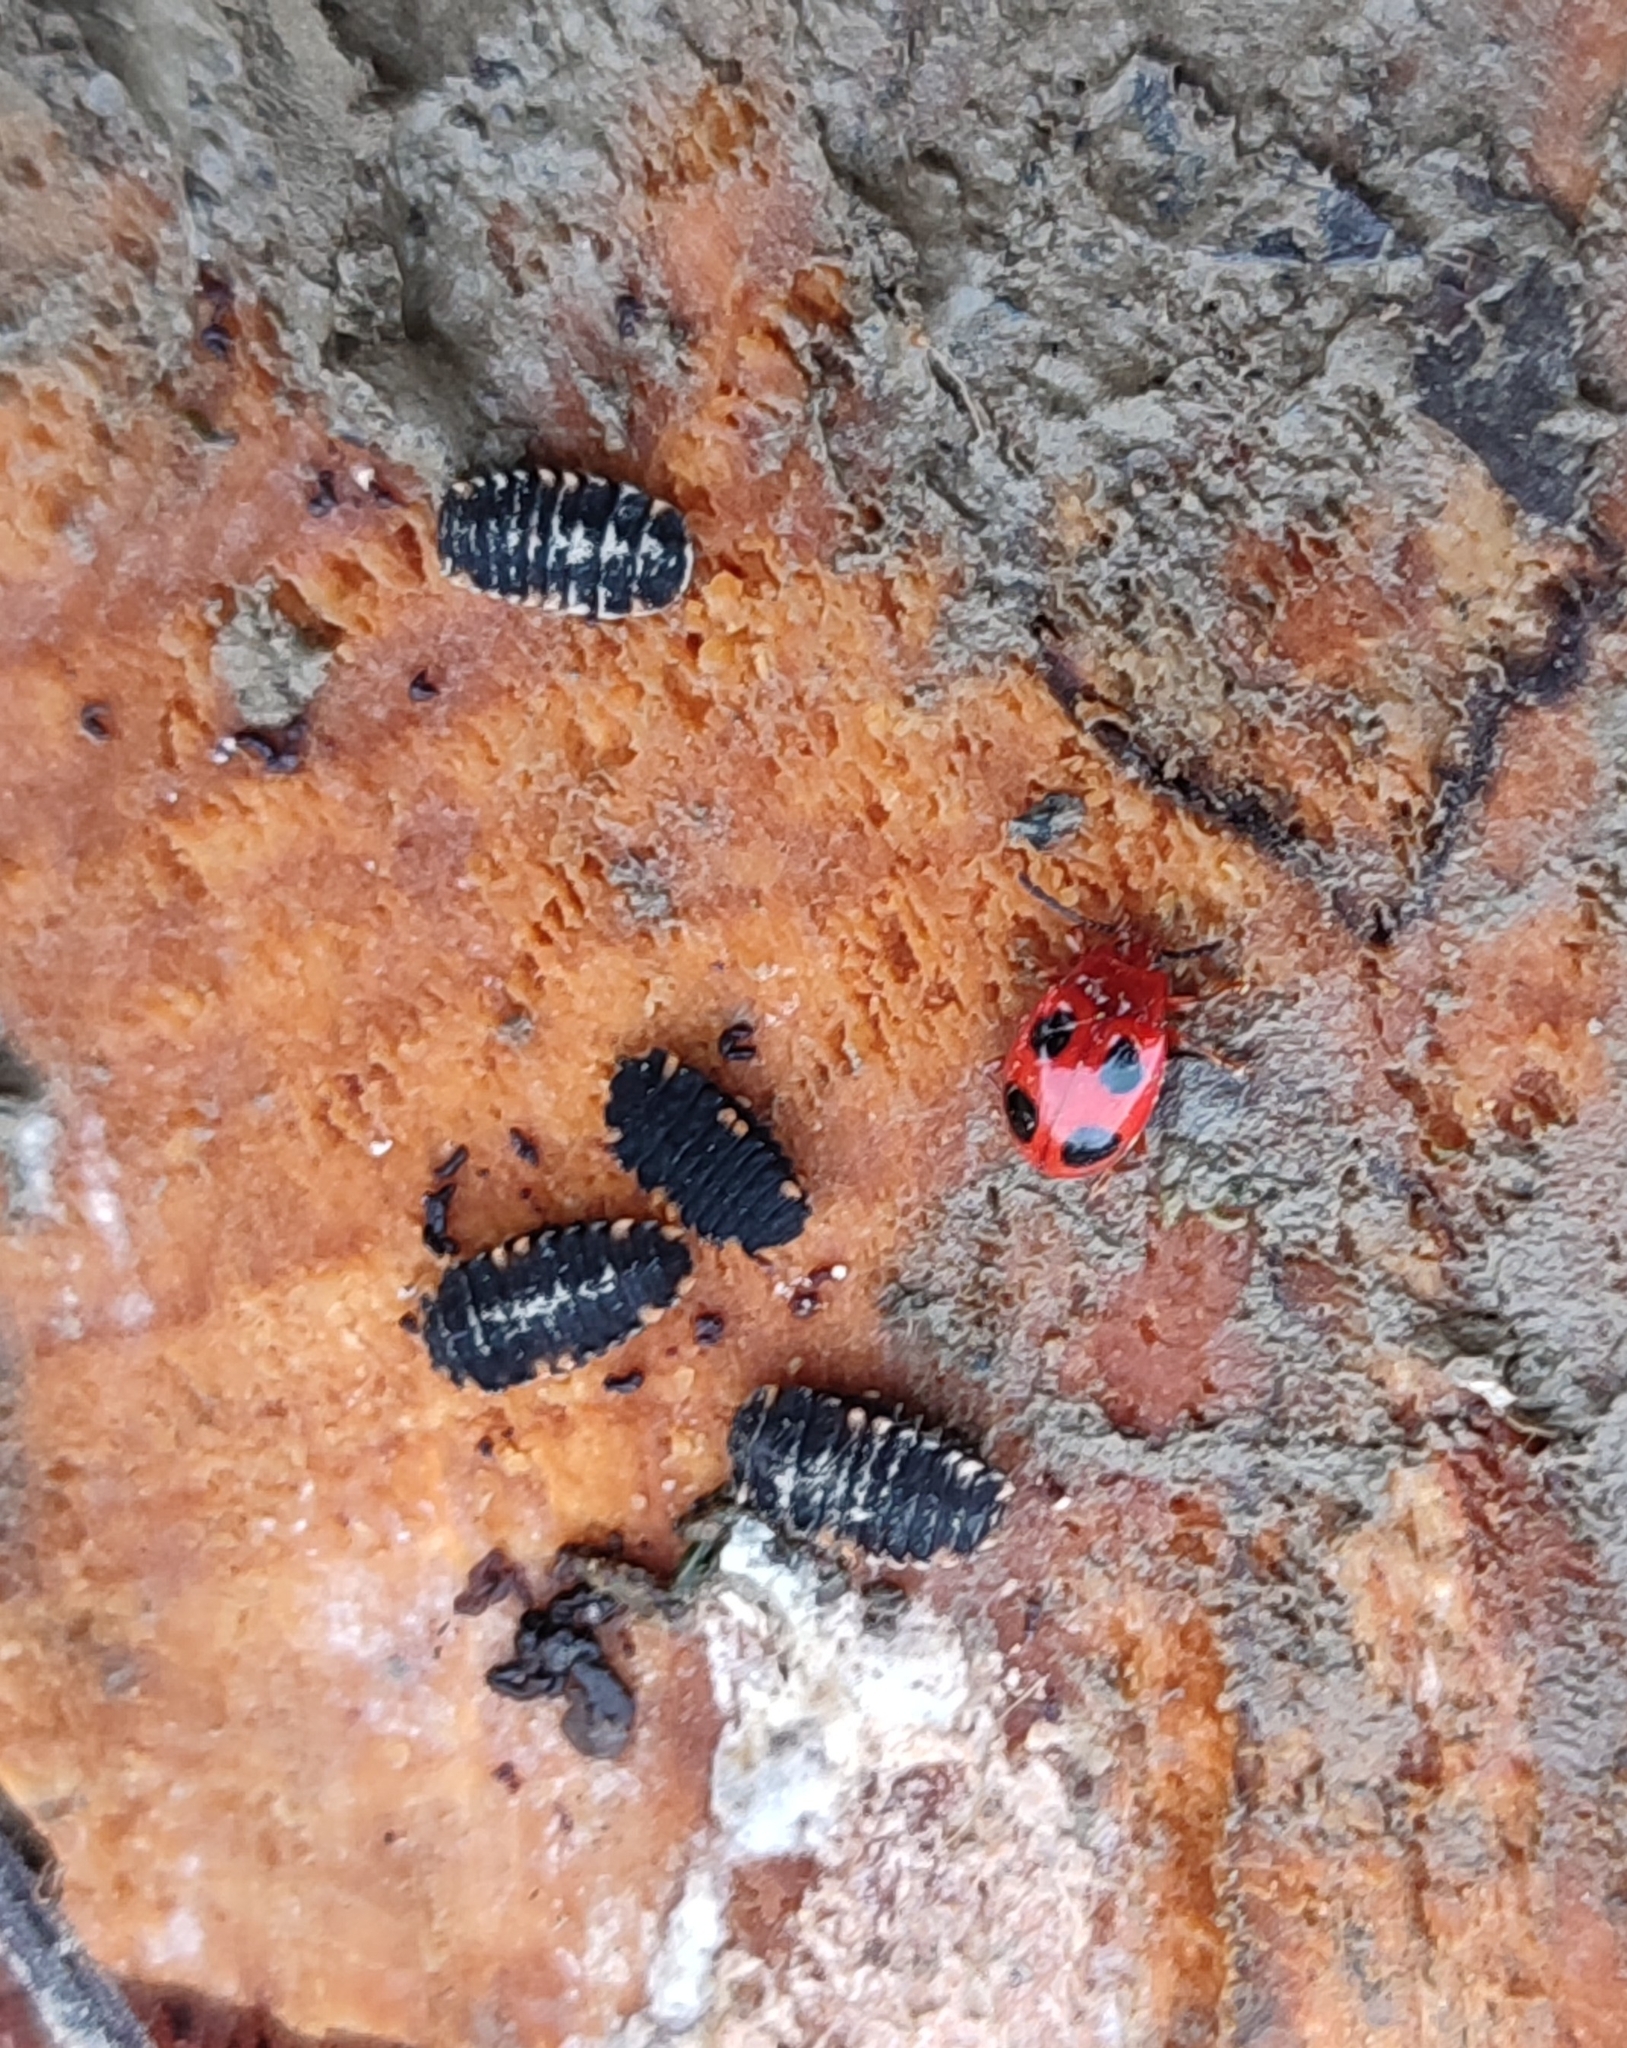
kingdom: Animalia
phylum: Arthropoda
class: Insecta
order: Coleoptera
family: Endomychidae
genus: Endomychus
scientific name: Endomychus
